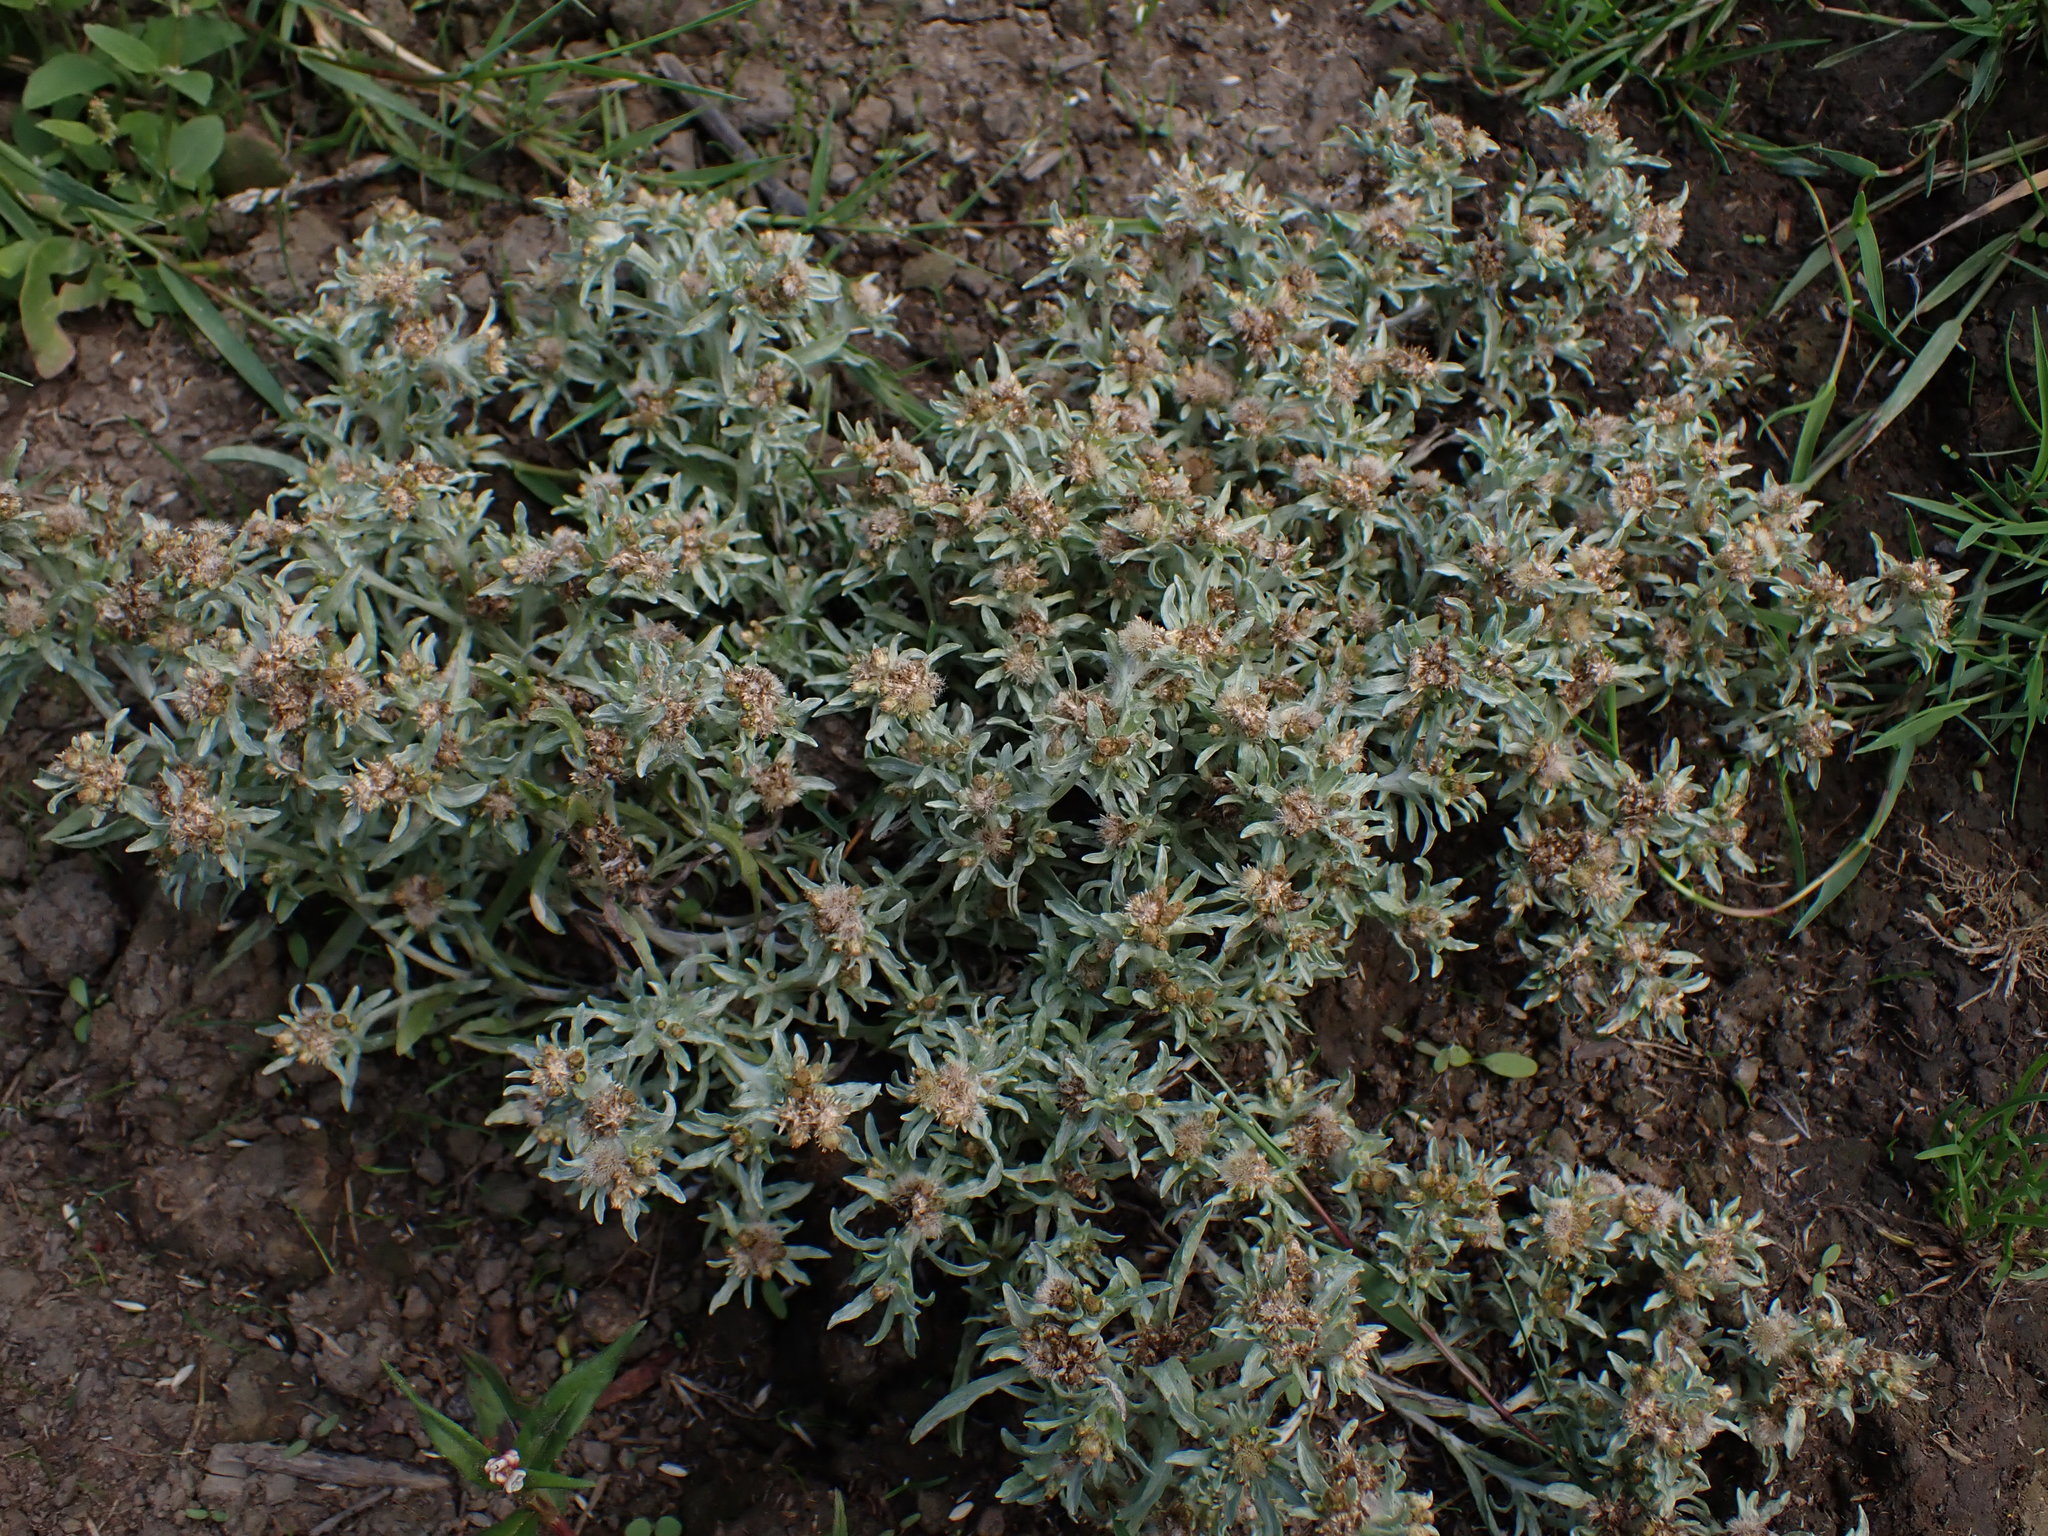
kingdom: Plantae
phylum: Tracheophyta
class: Magnoliopsida
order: Asterales
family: Asteraceae
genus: Gnaphalium
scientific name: Gnaphalium uliginosum
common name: Marsh cudweed
